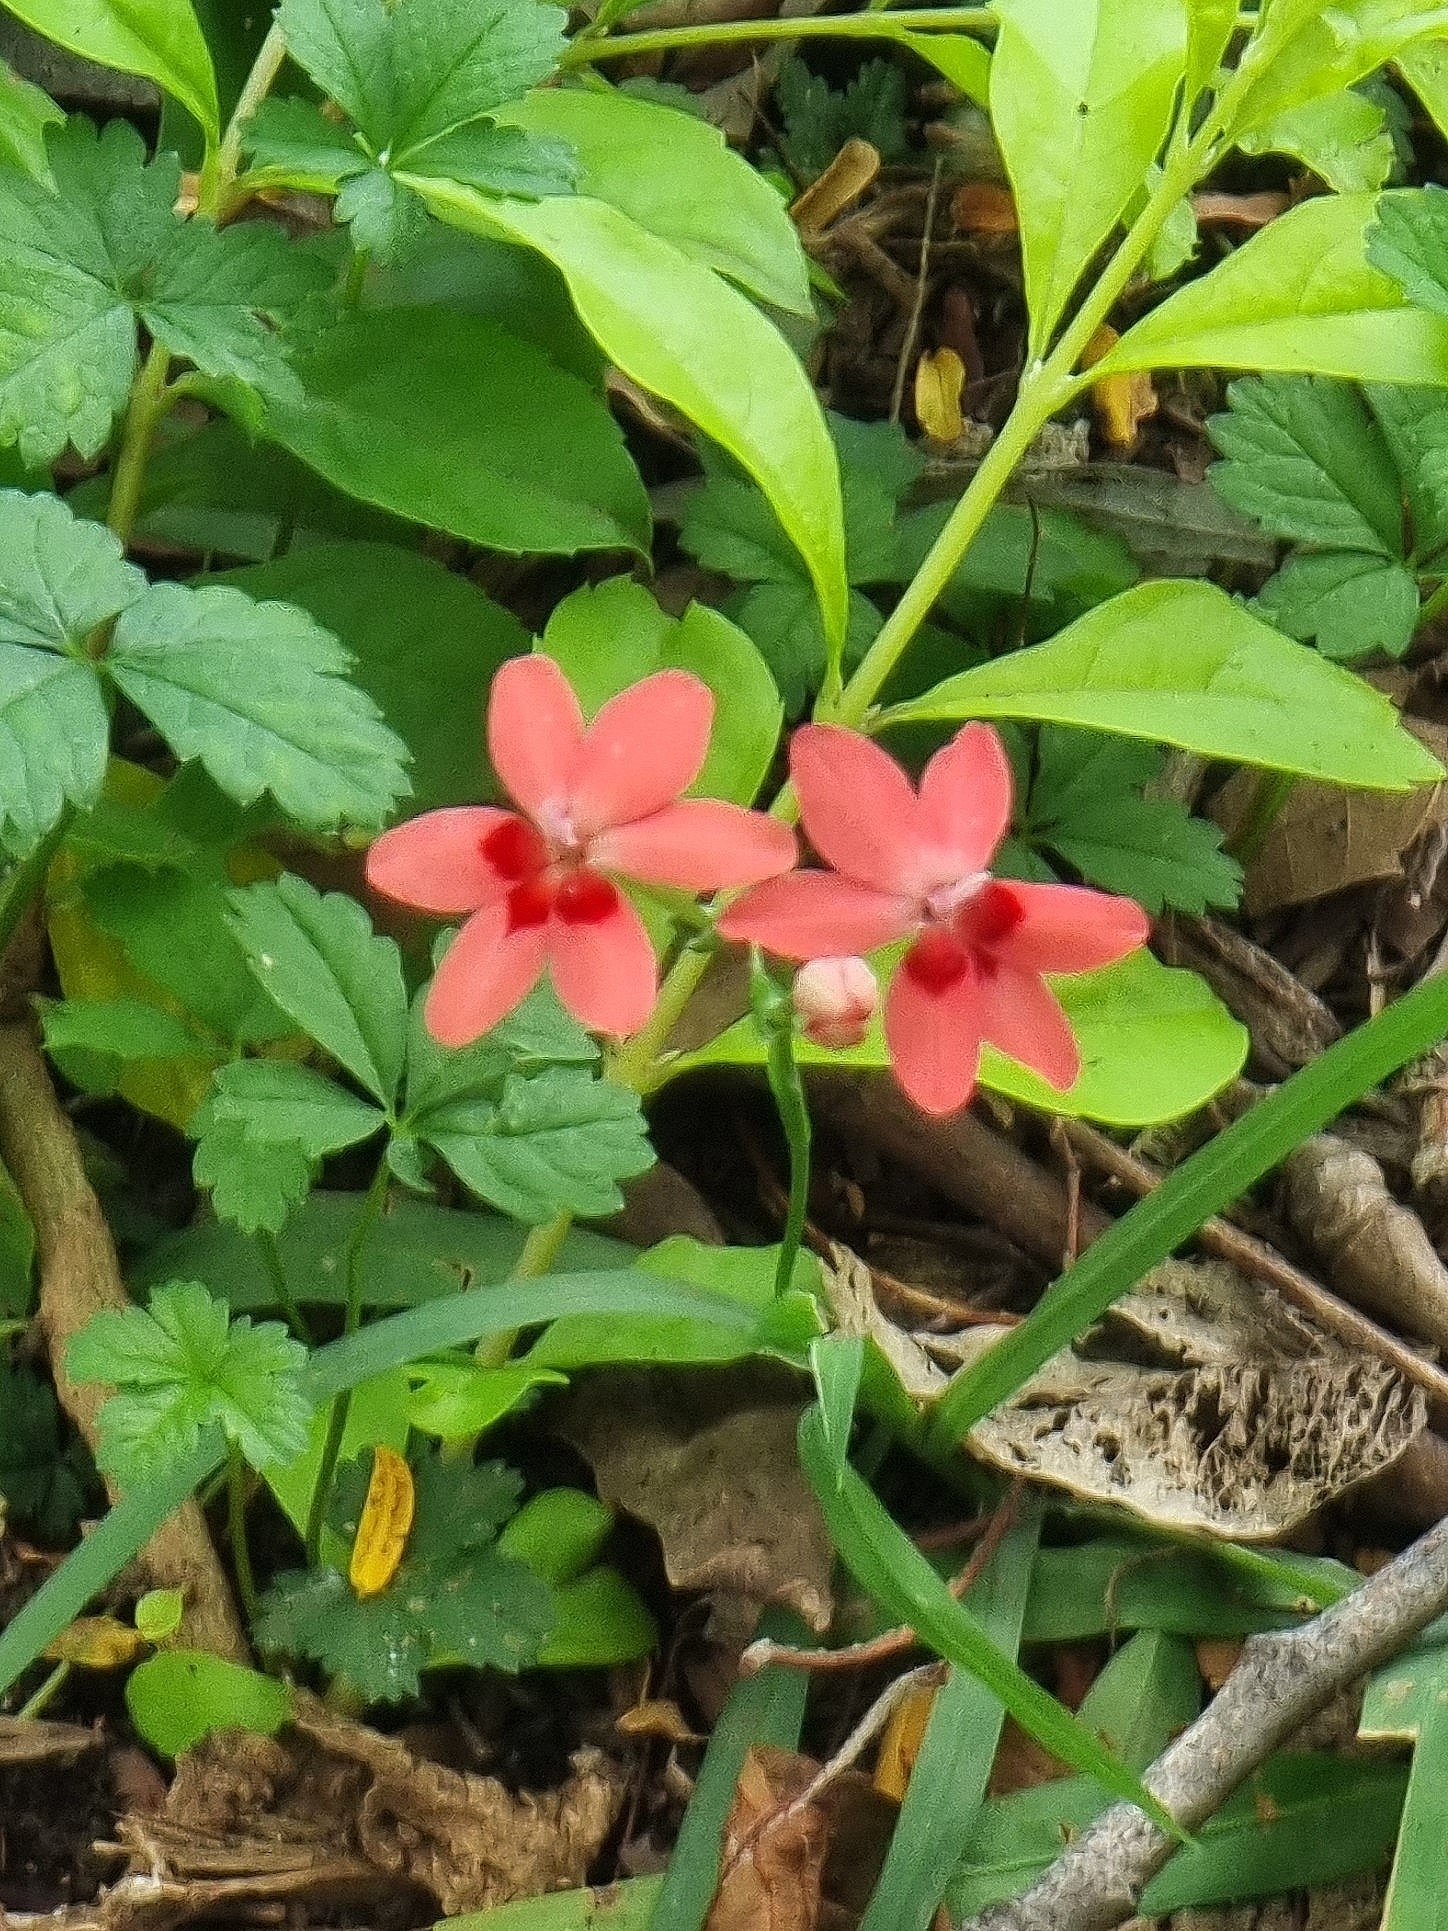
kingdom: Plantae
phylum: Tracheophyta
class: Liliopsida
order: Asparagales
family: Iridaceae
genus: Freesia
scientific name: Freesia laxa
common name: False freesia
